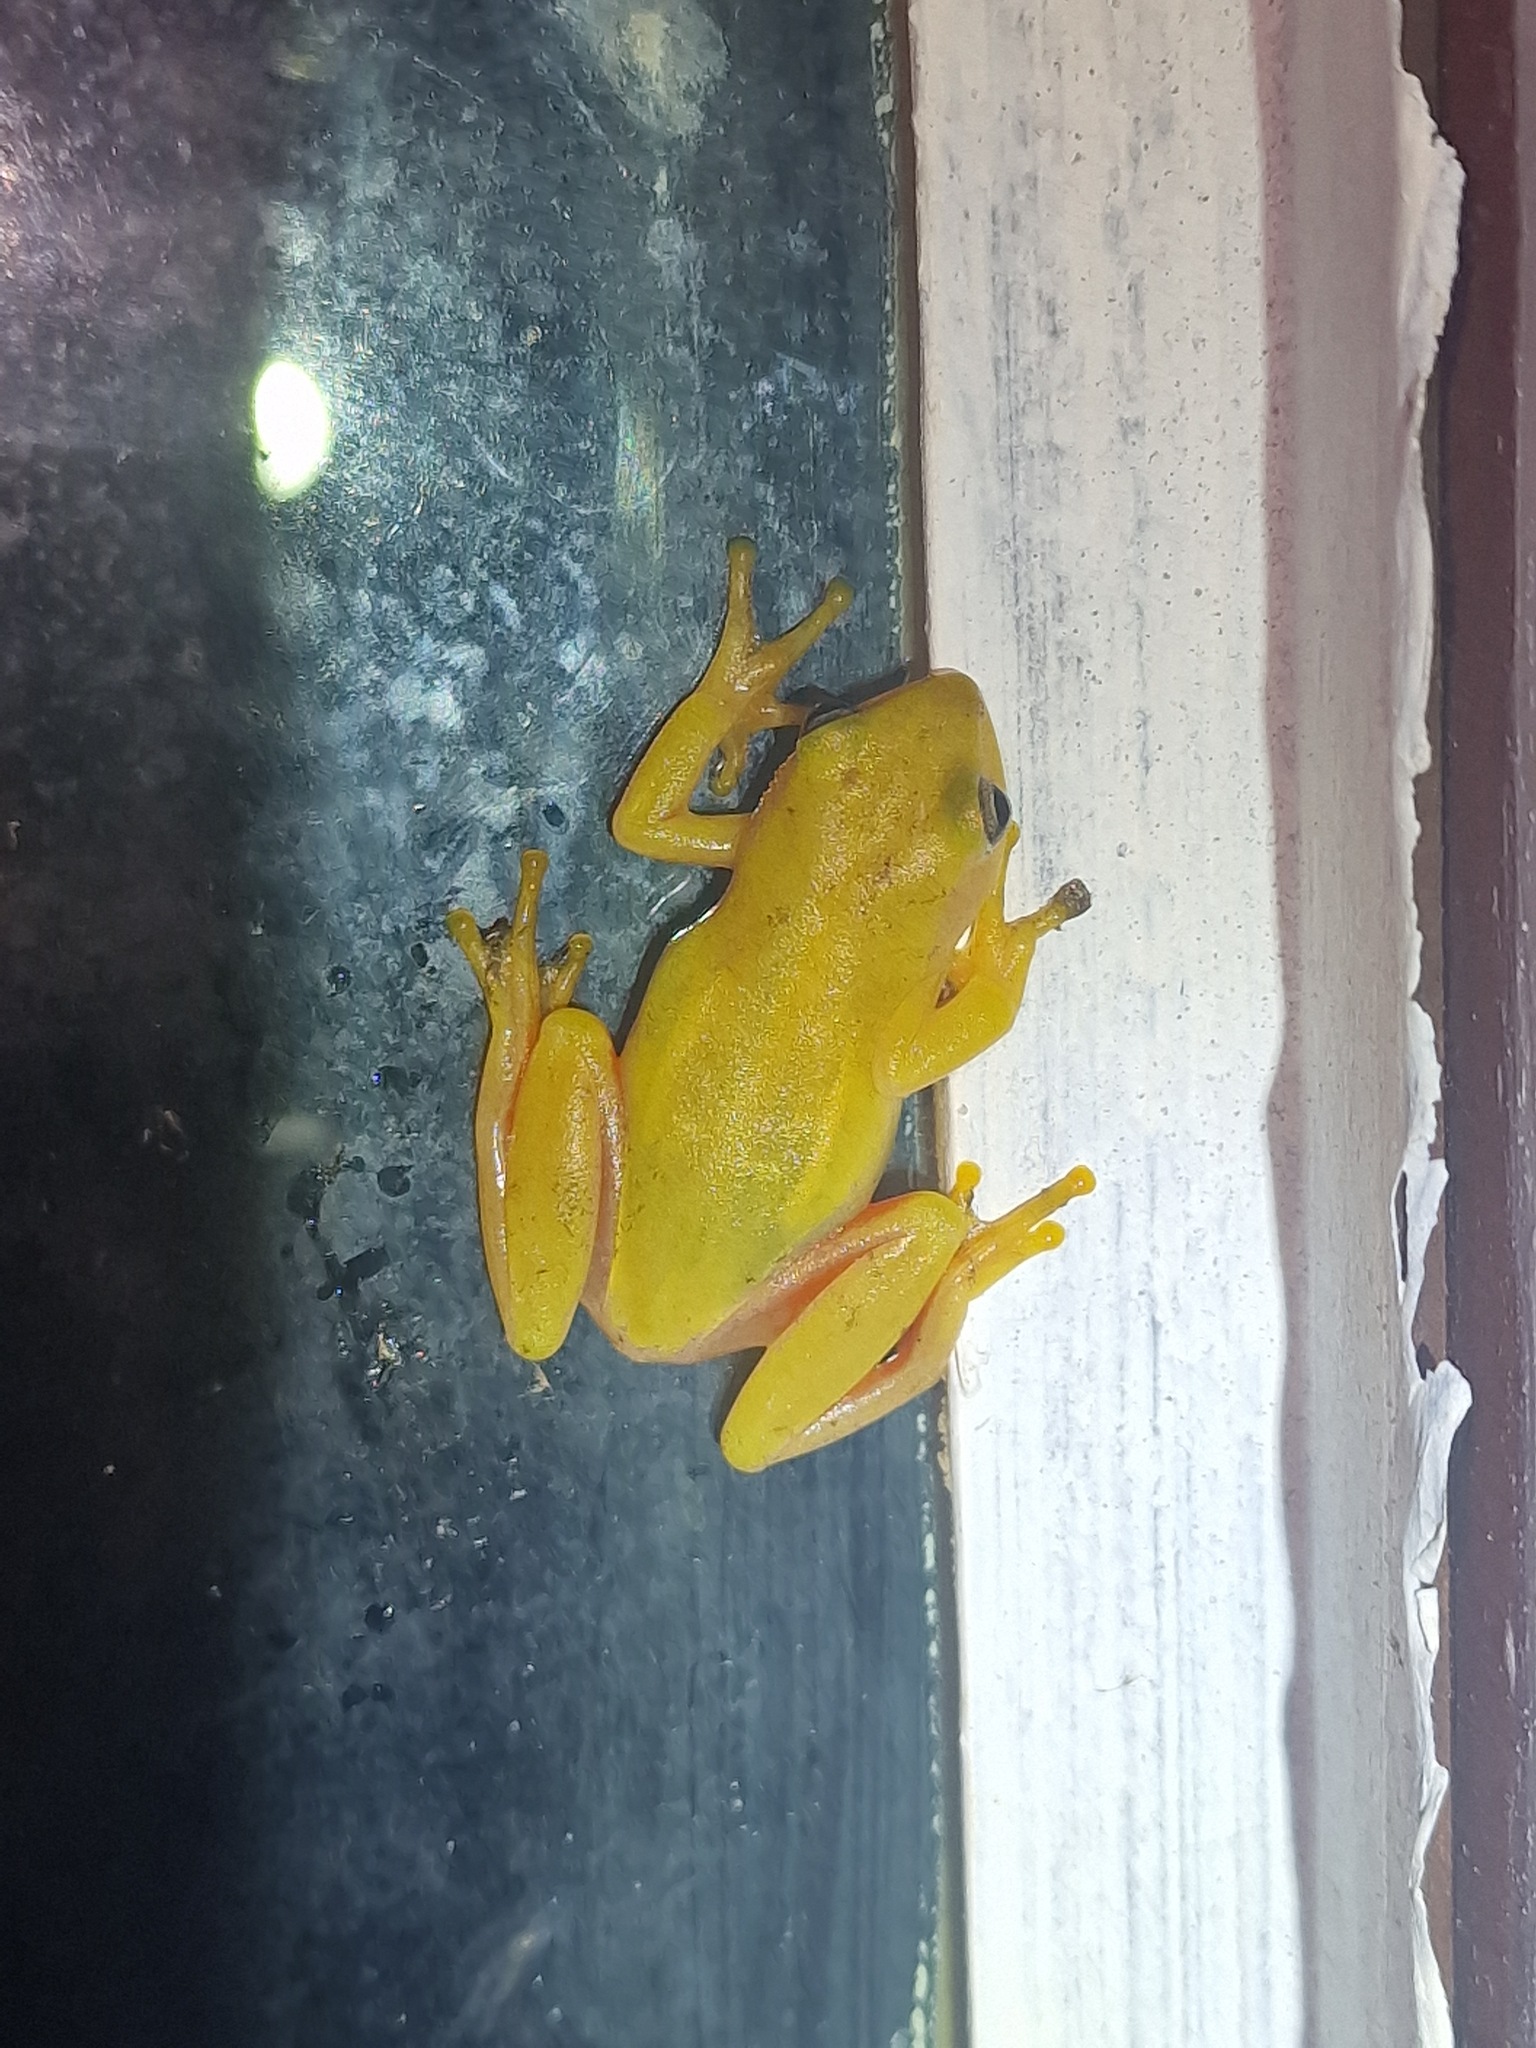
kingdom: Animalia
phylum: Chordata
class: Amphibia
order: Anura
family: Hyperoliidae
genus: Hyperolius
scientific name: Hyperolius kivuensis
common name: Kivu reed frog
